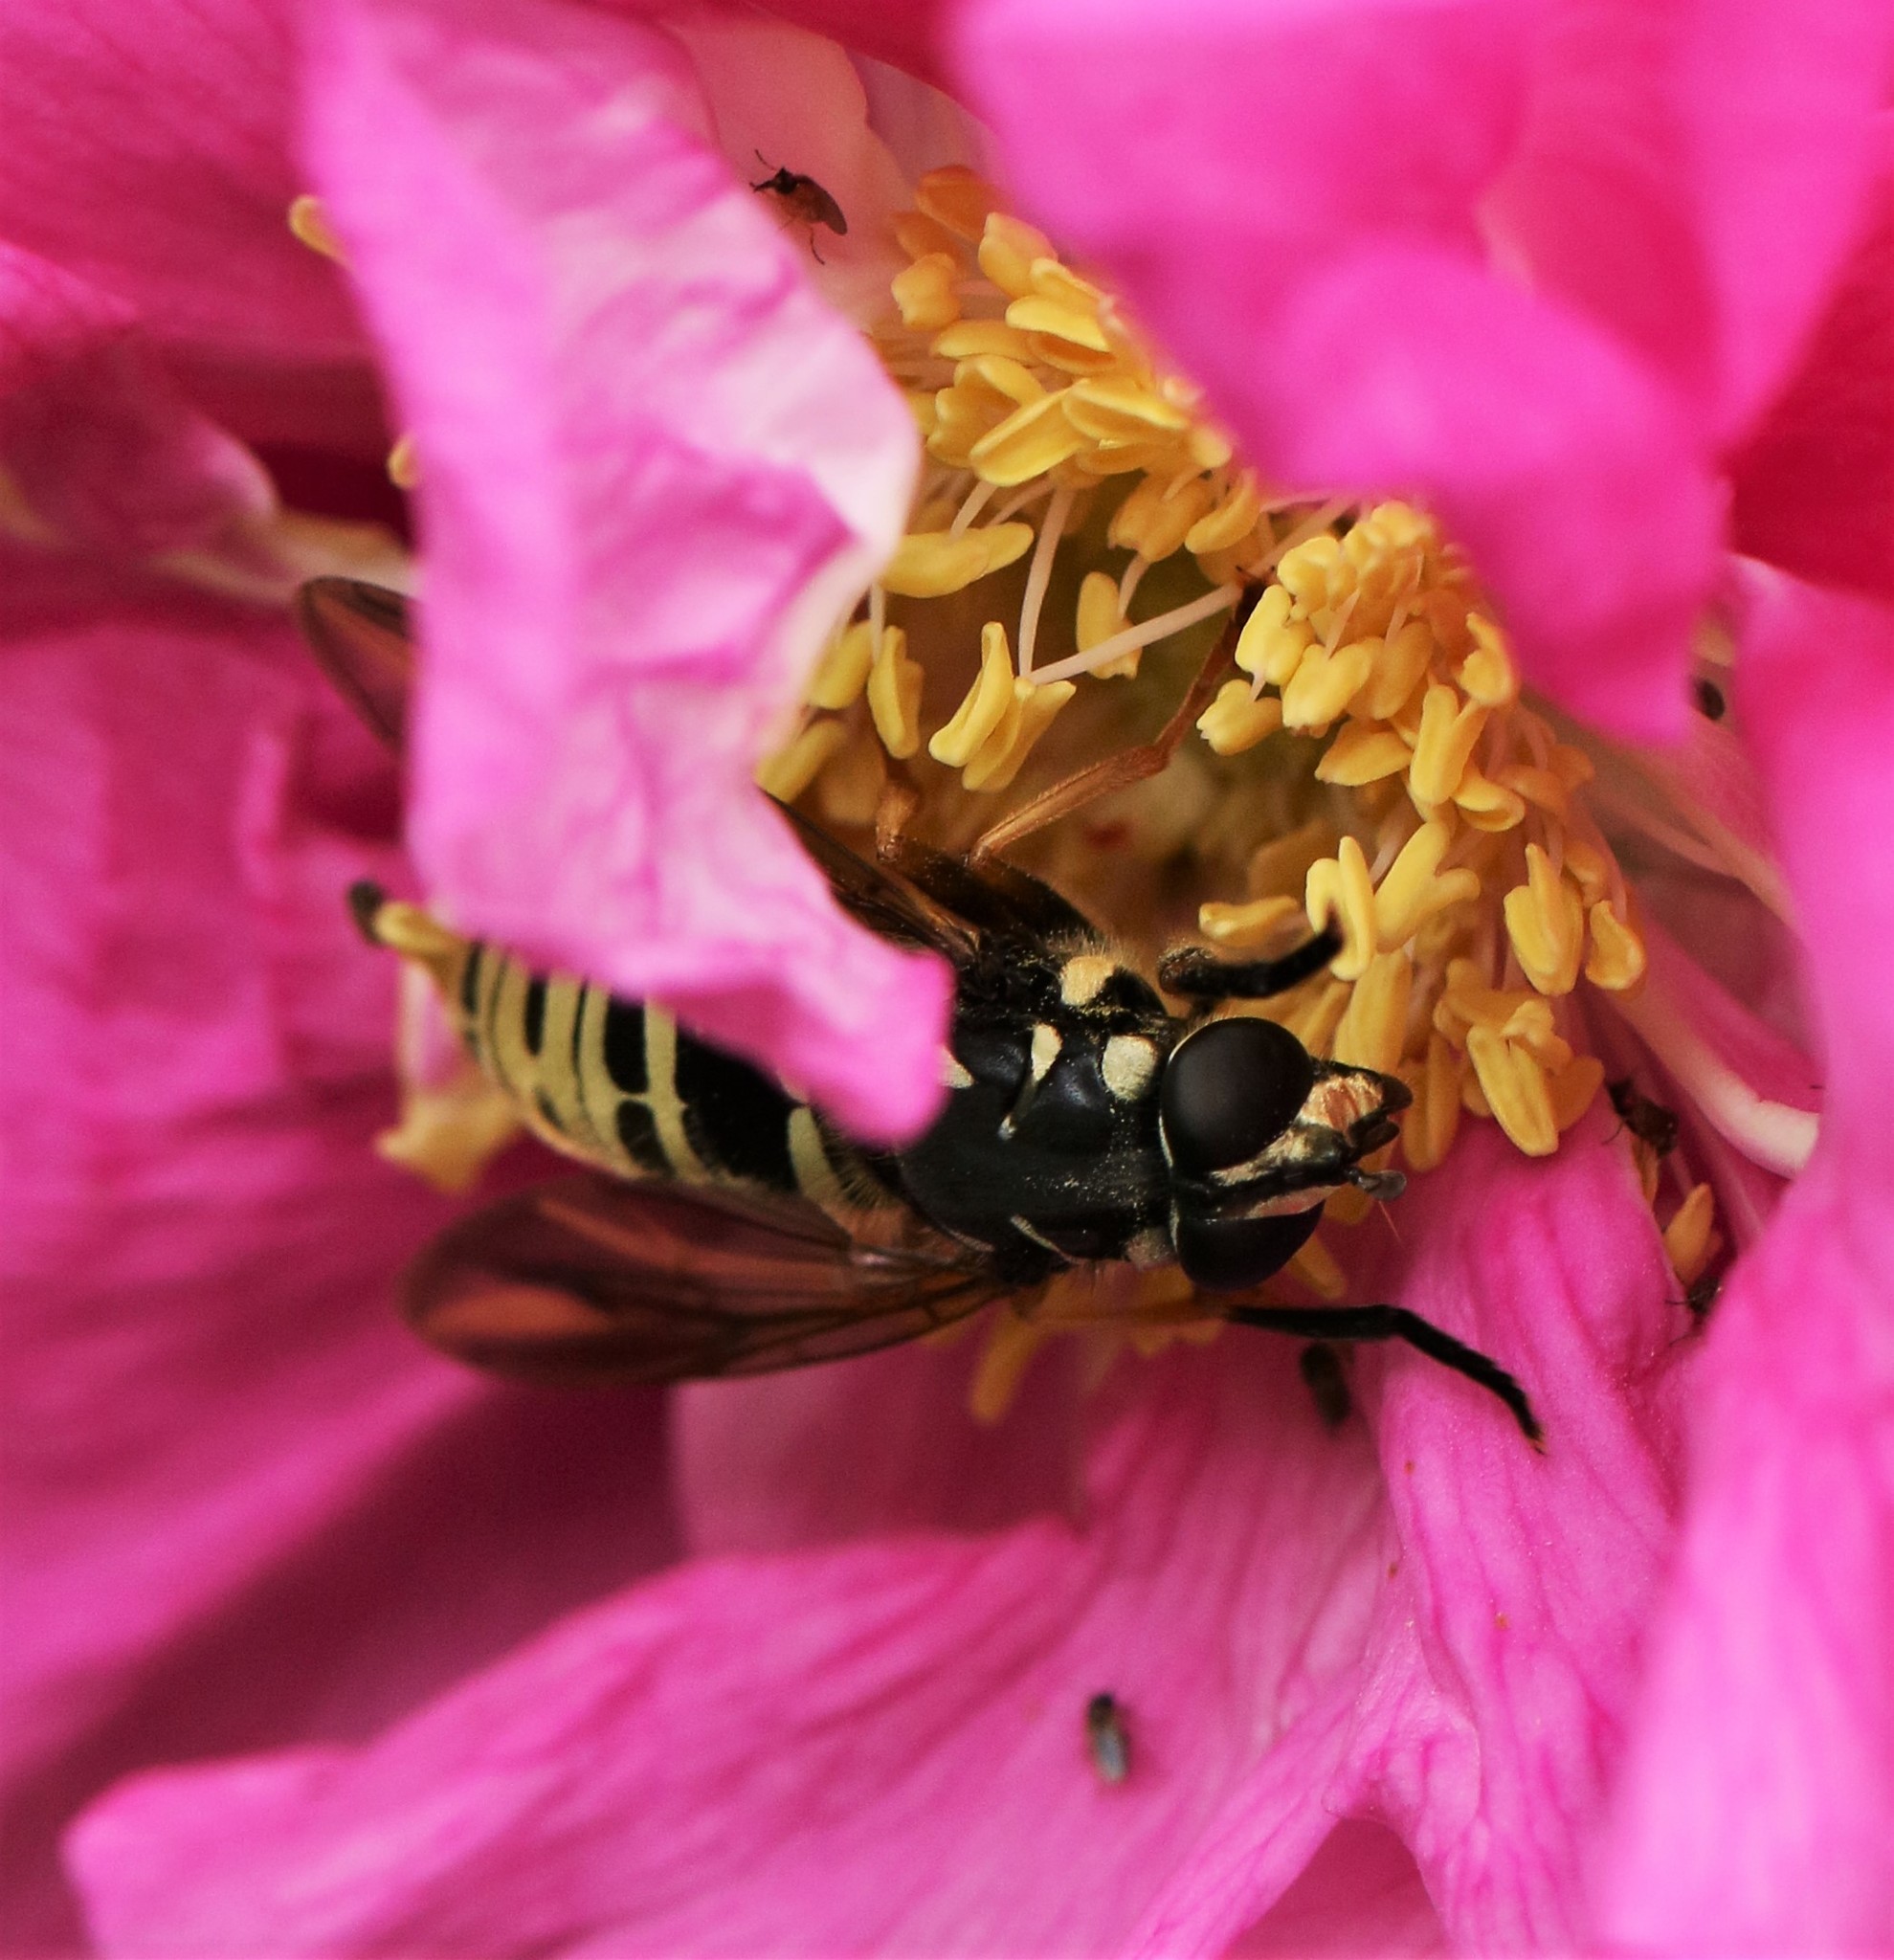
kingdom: Animalia
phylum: Arthropoda
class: Insecta
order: Diptera
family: Syrphidae
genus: Temnostoma
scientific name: Temnostoma excentricum
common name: Black-spotted falsehorn
